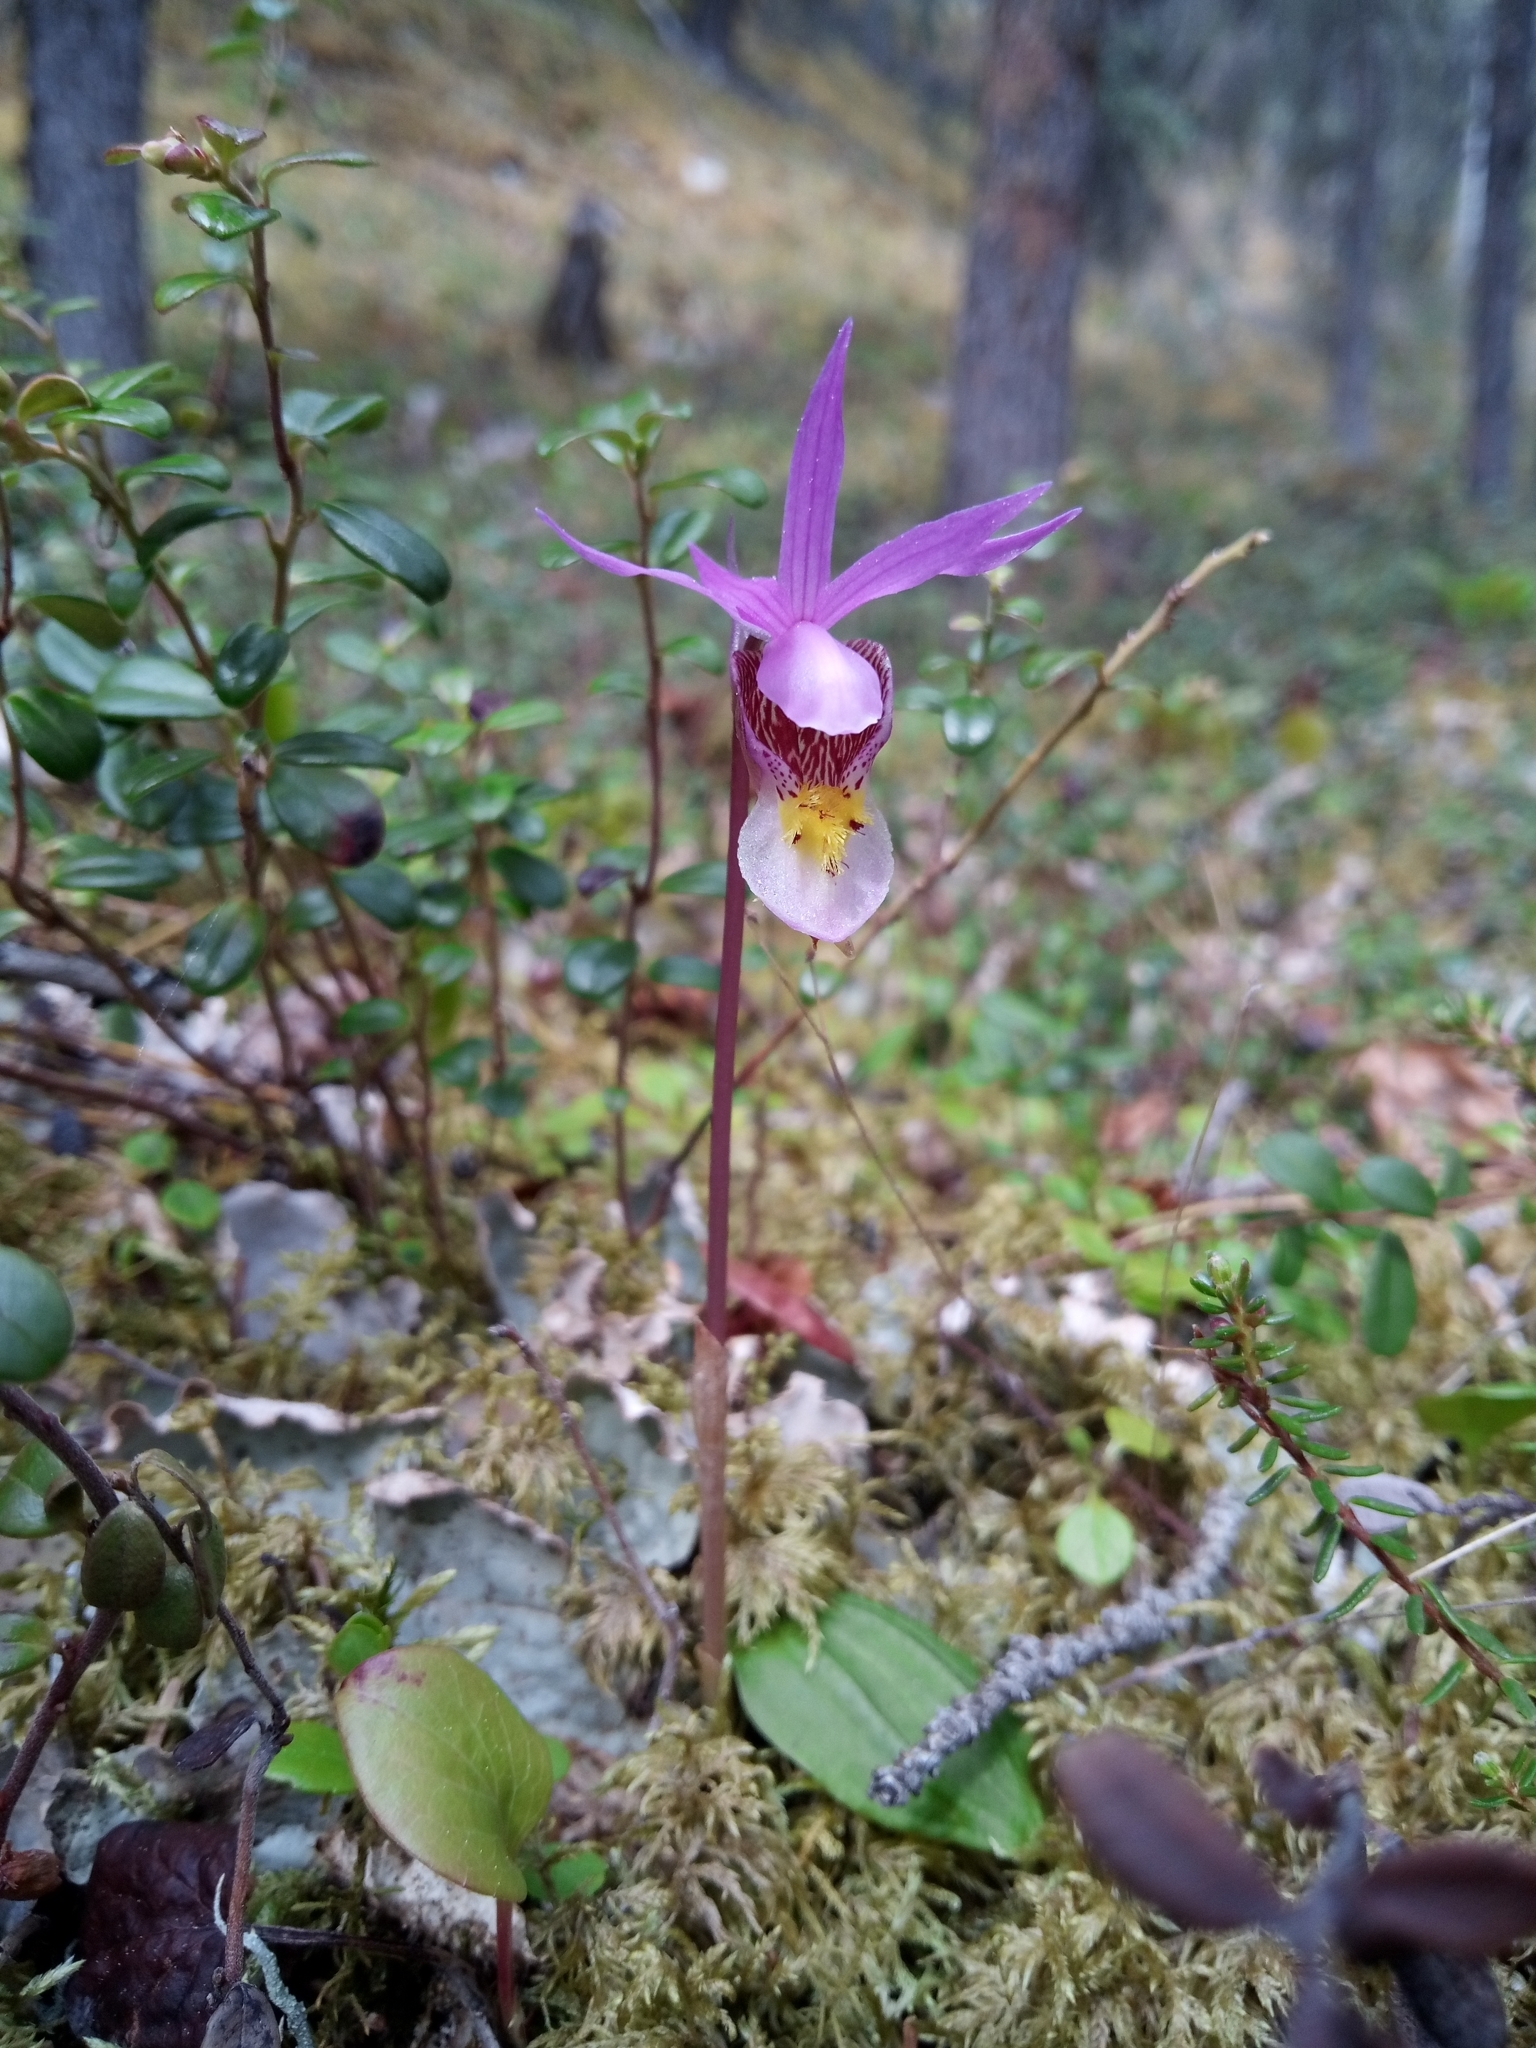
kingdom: Plantae
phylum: Tracheophyta
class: Liliopsida
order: Asparagales
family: Orchidaceae
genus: Calypso
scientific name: Calypso bulbosa
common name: Calypso
